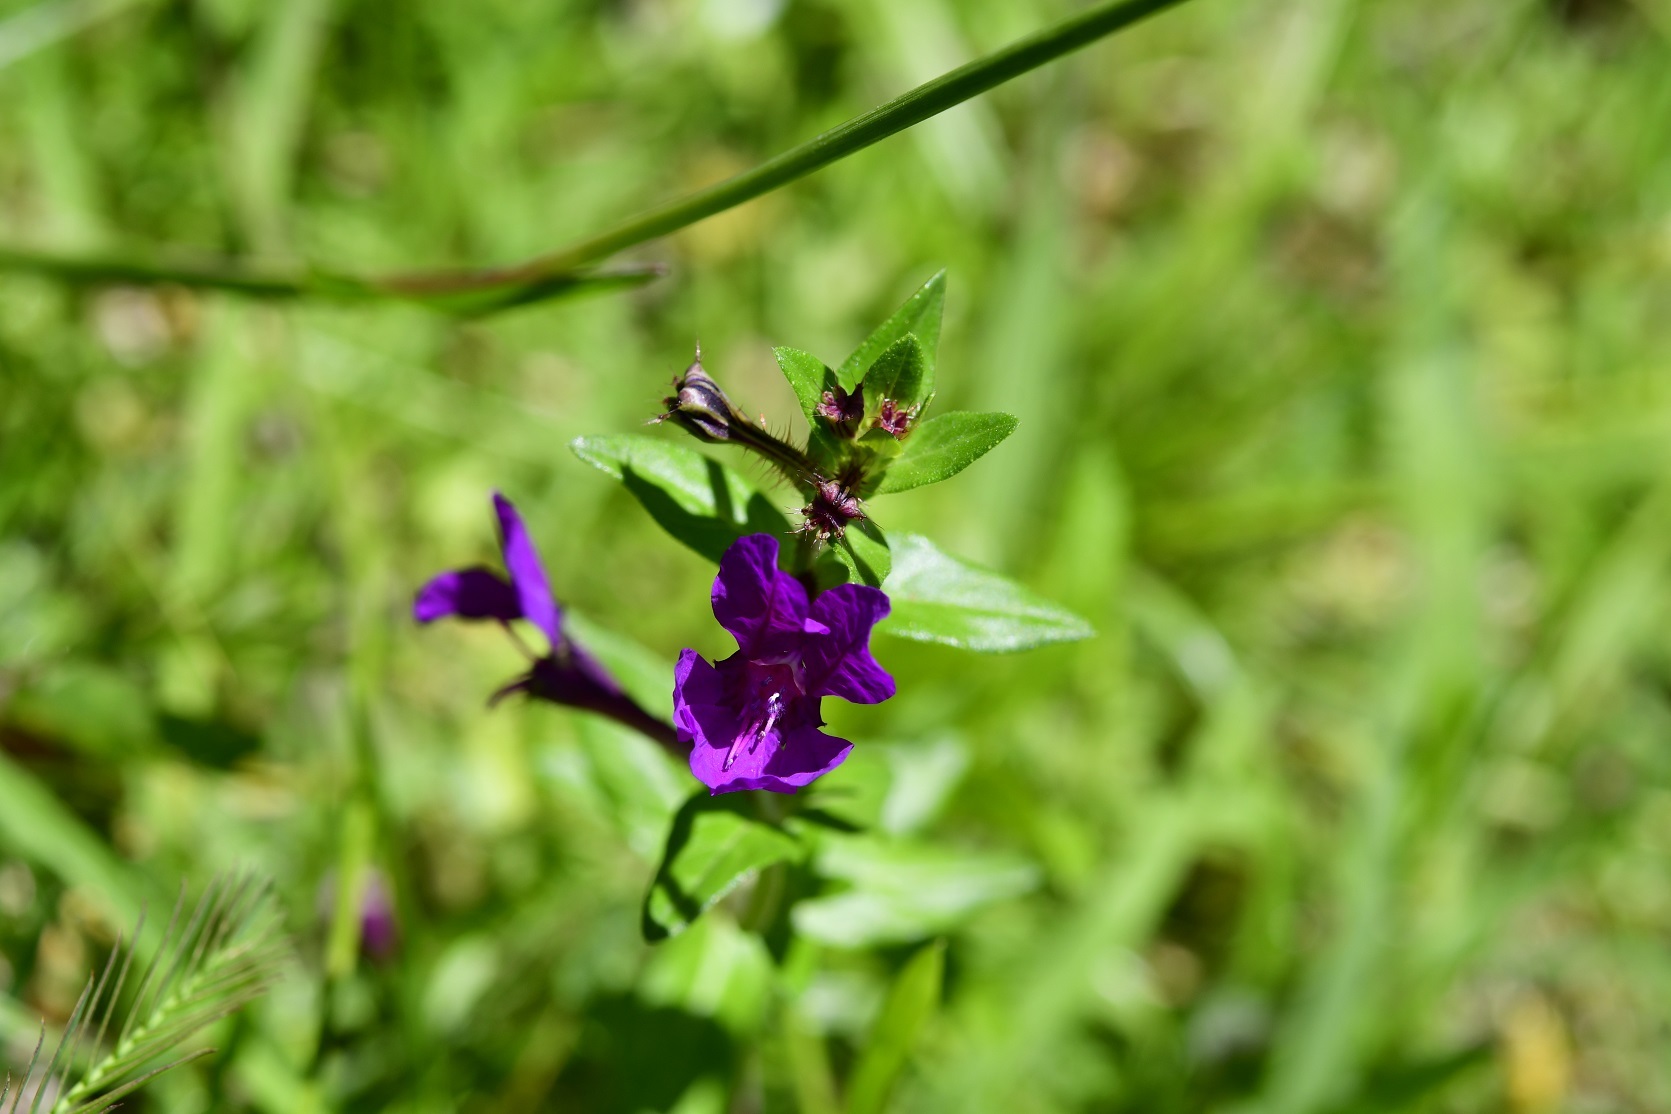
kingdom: Plantae
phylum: Tracheophyta
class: Magnoliopsida
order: Myrtales
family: Lythraceae
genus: Cuphea
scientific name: Cuphea aequipetala
